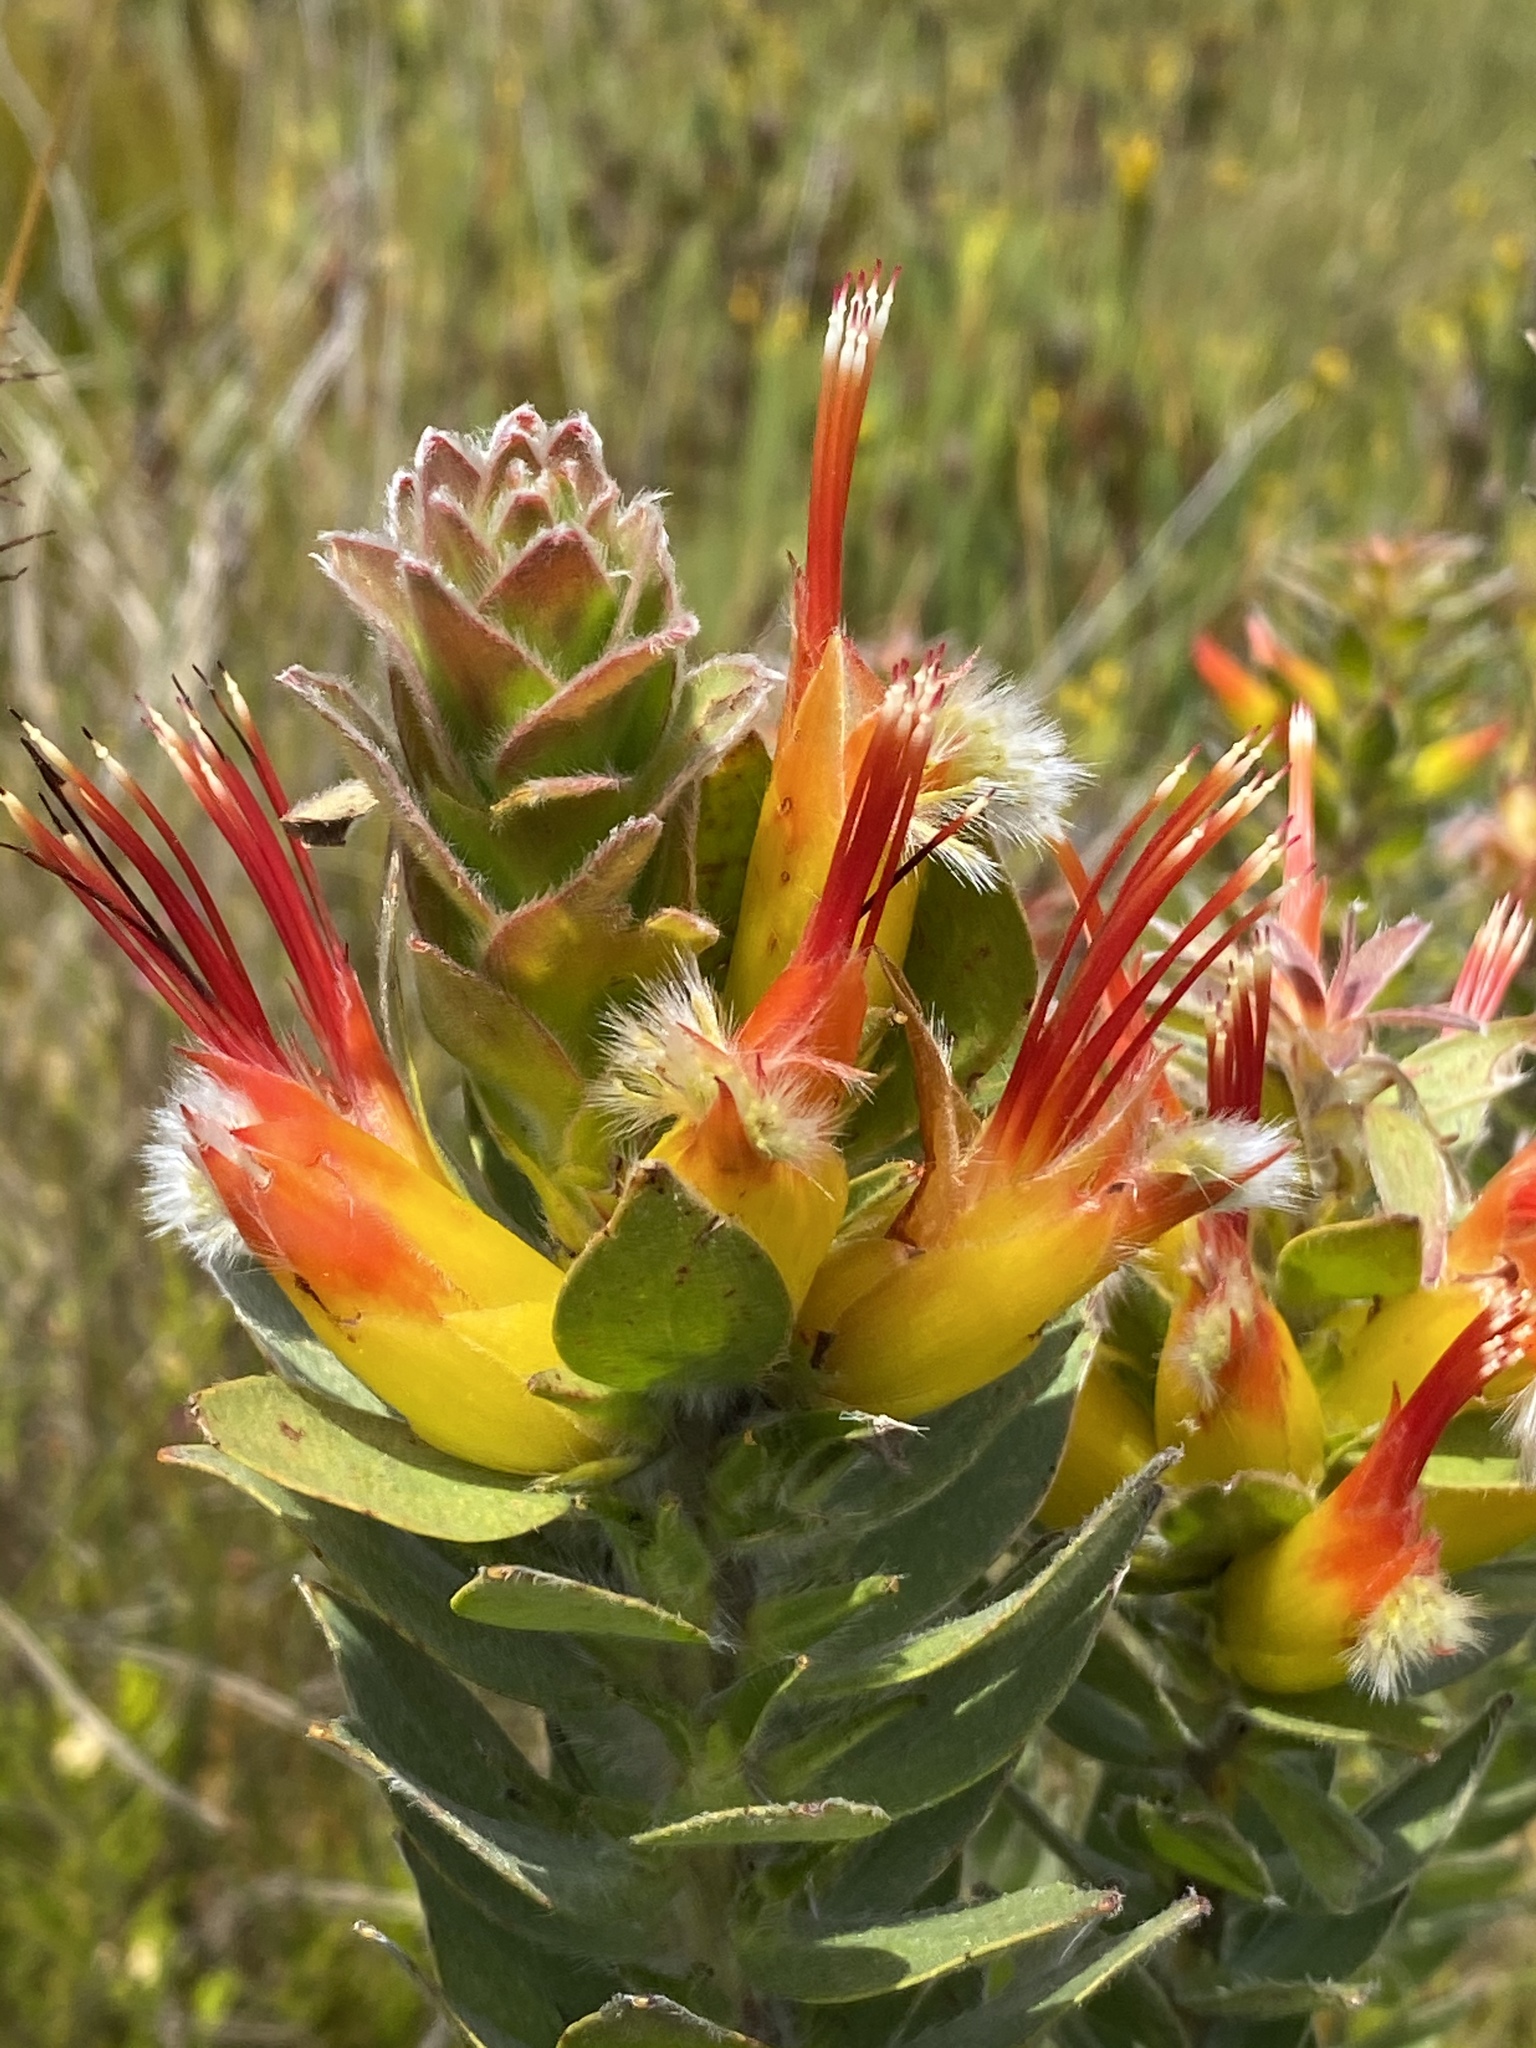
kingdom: Plantae
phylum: Tracheophyta
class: Magnoliopsida
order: Proteales
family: Proteaceae
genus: Mimetes
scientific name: Mimetes hirtus
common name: Marsh pagoda
